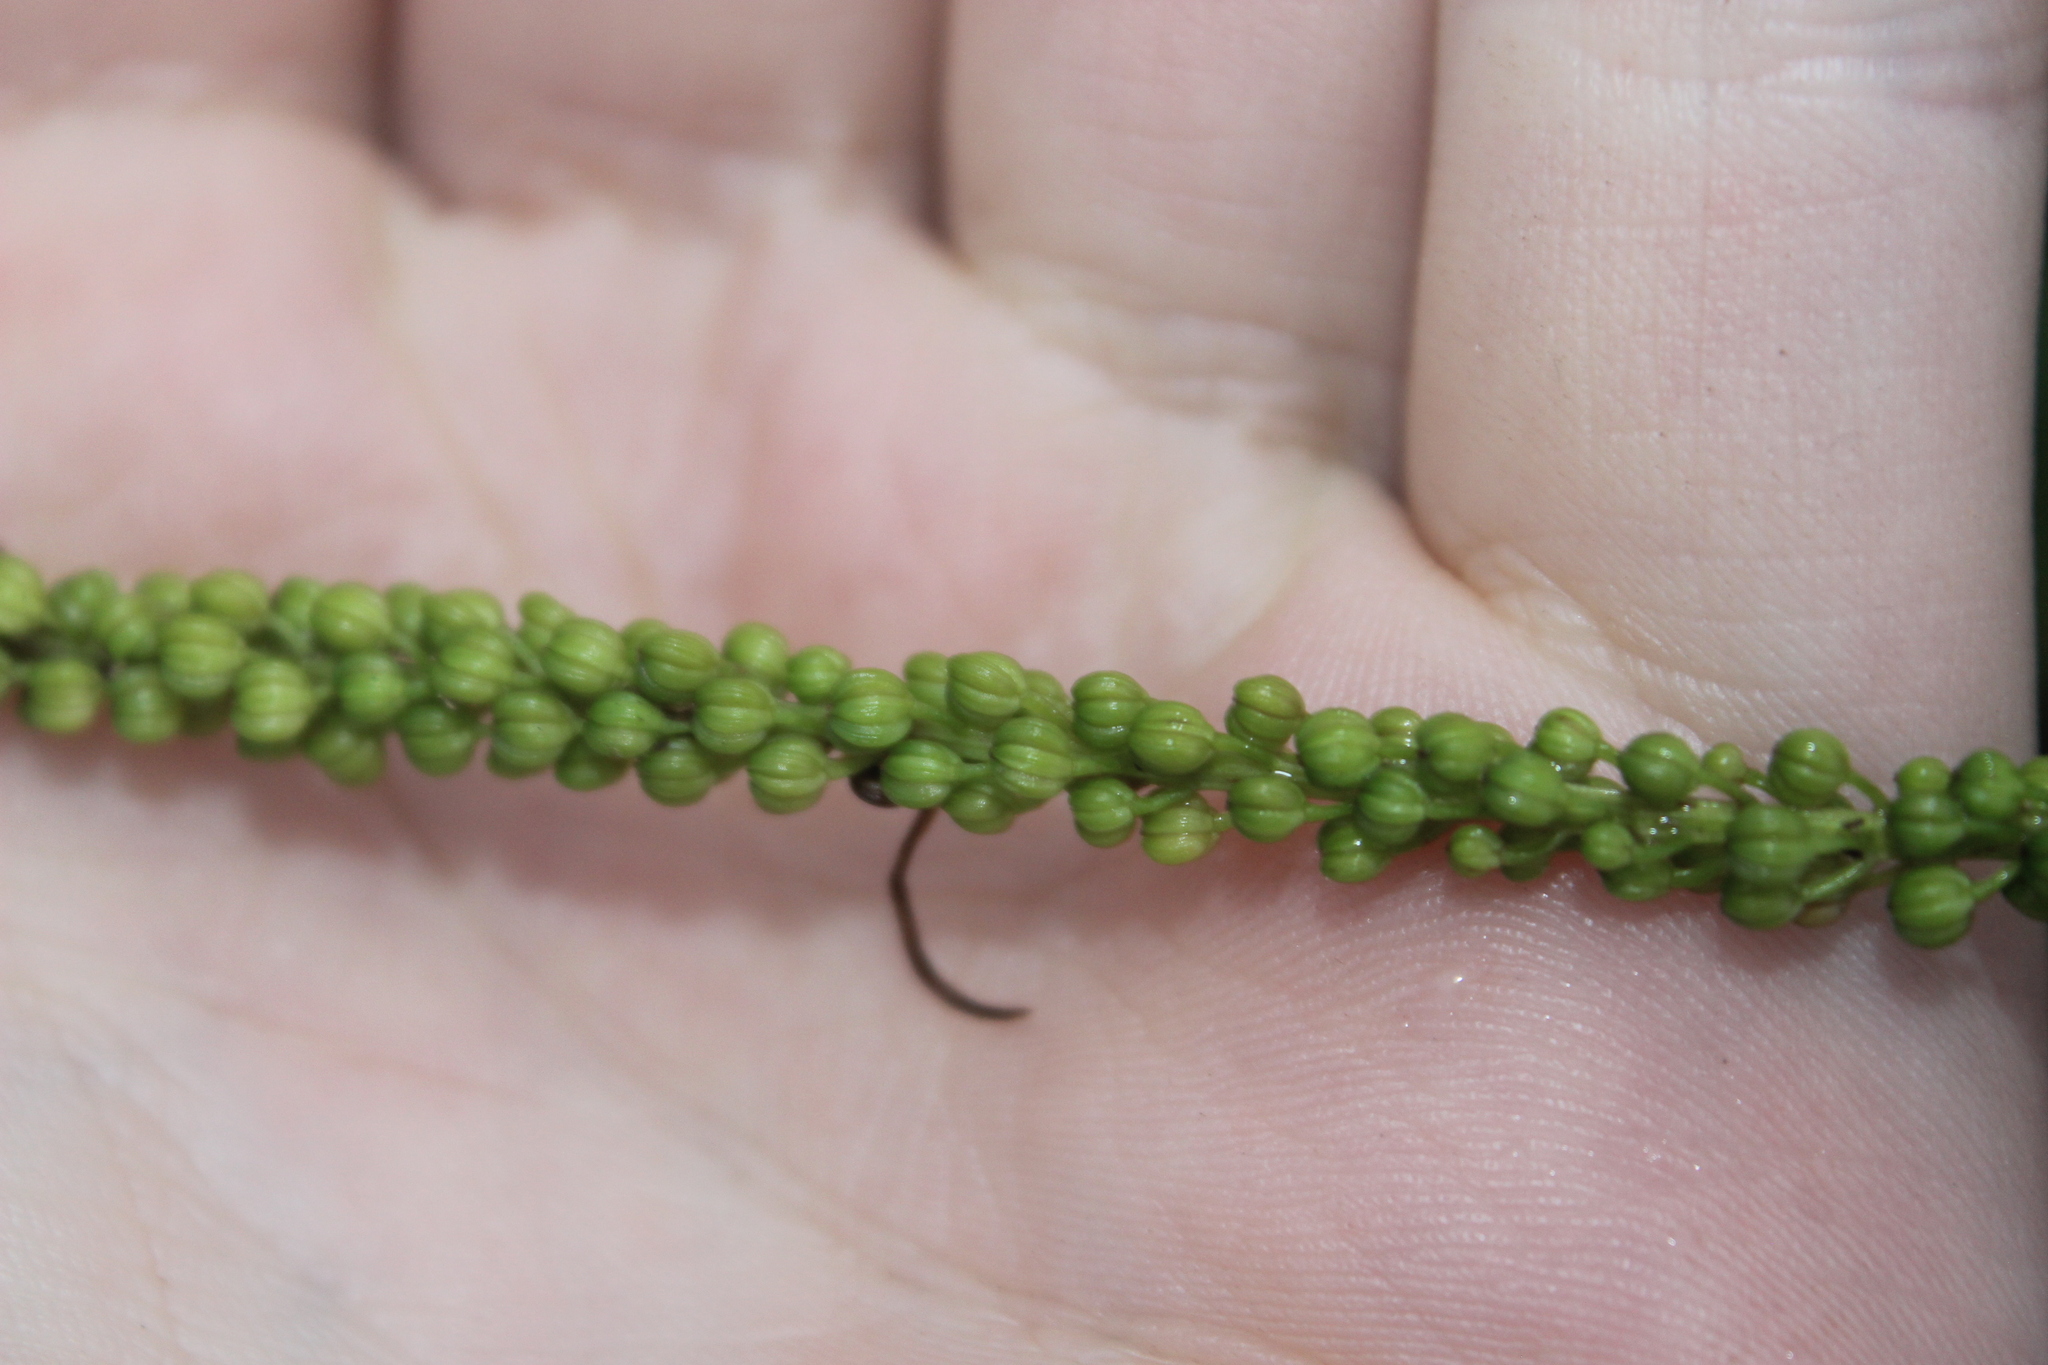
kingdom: Plantae
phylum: Tracheophyta
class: Liliopsida
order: Alismatales
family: Juncaginaceae
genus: Triglochin
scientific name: Triglochin striata
